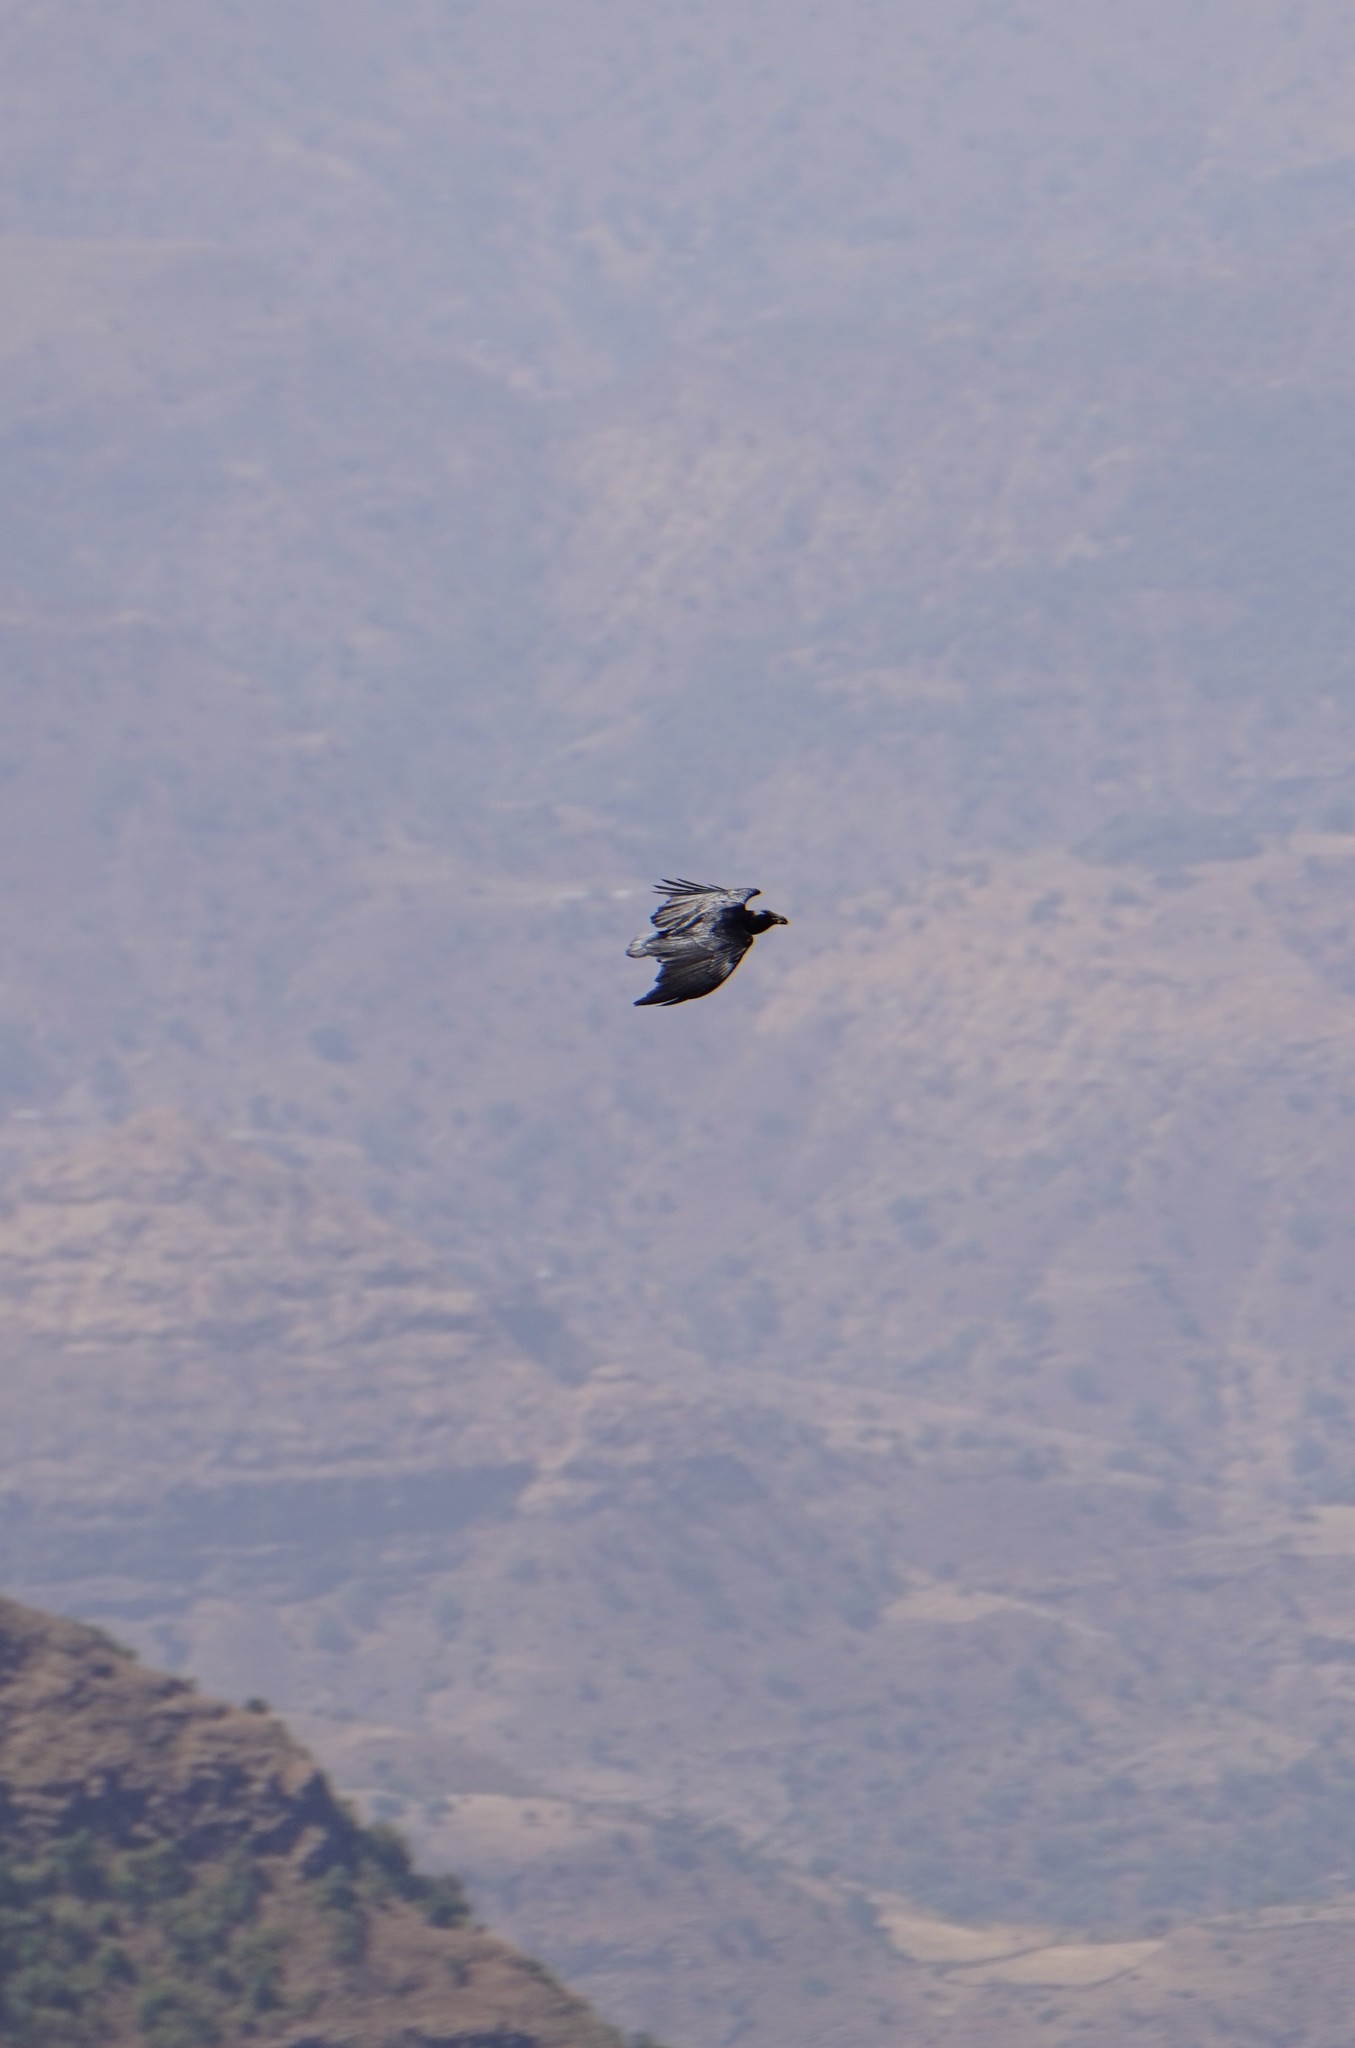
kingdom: Animalia
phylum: Chordata
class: Aves
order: Passeriformes
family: Corvidae
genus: Corvus
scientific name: Corvus rhipidurus
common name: Fan-tailed raven
